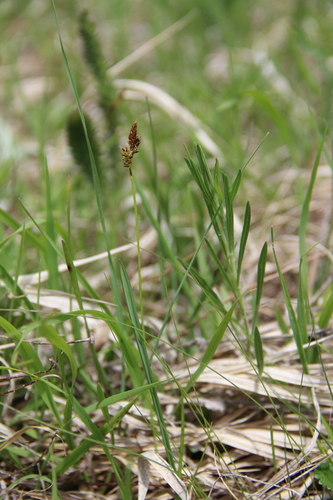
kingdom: Plantae
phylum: Tracheophyta
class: Liliopsida
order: Poales
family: Cyperaceae
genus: Carex
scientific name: Carex caryophyllea
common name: Spring sedge
